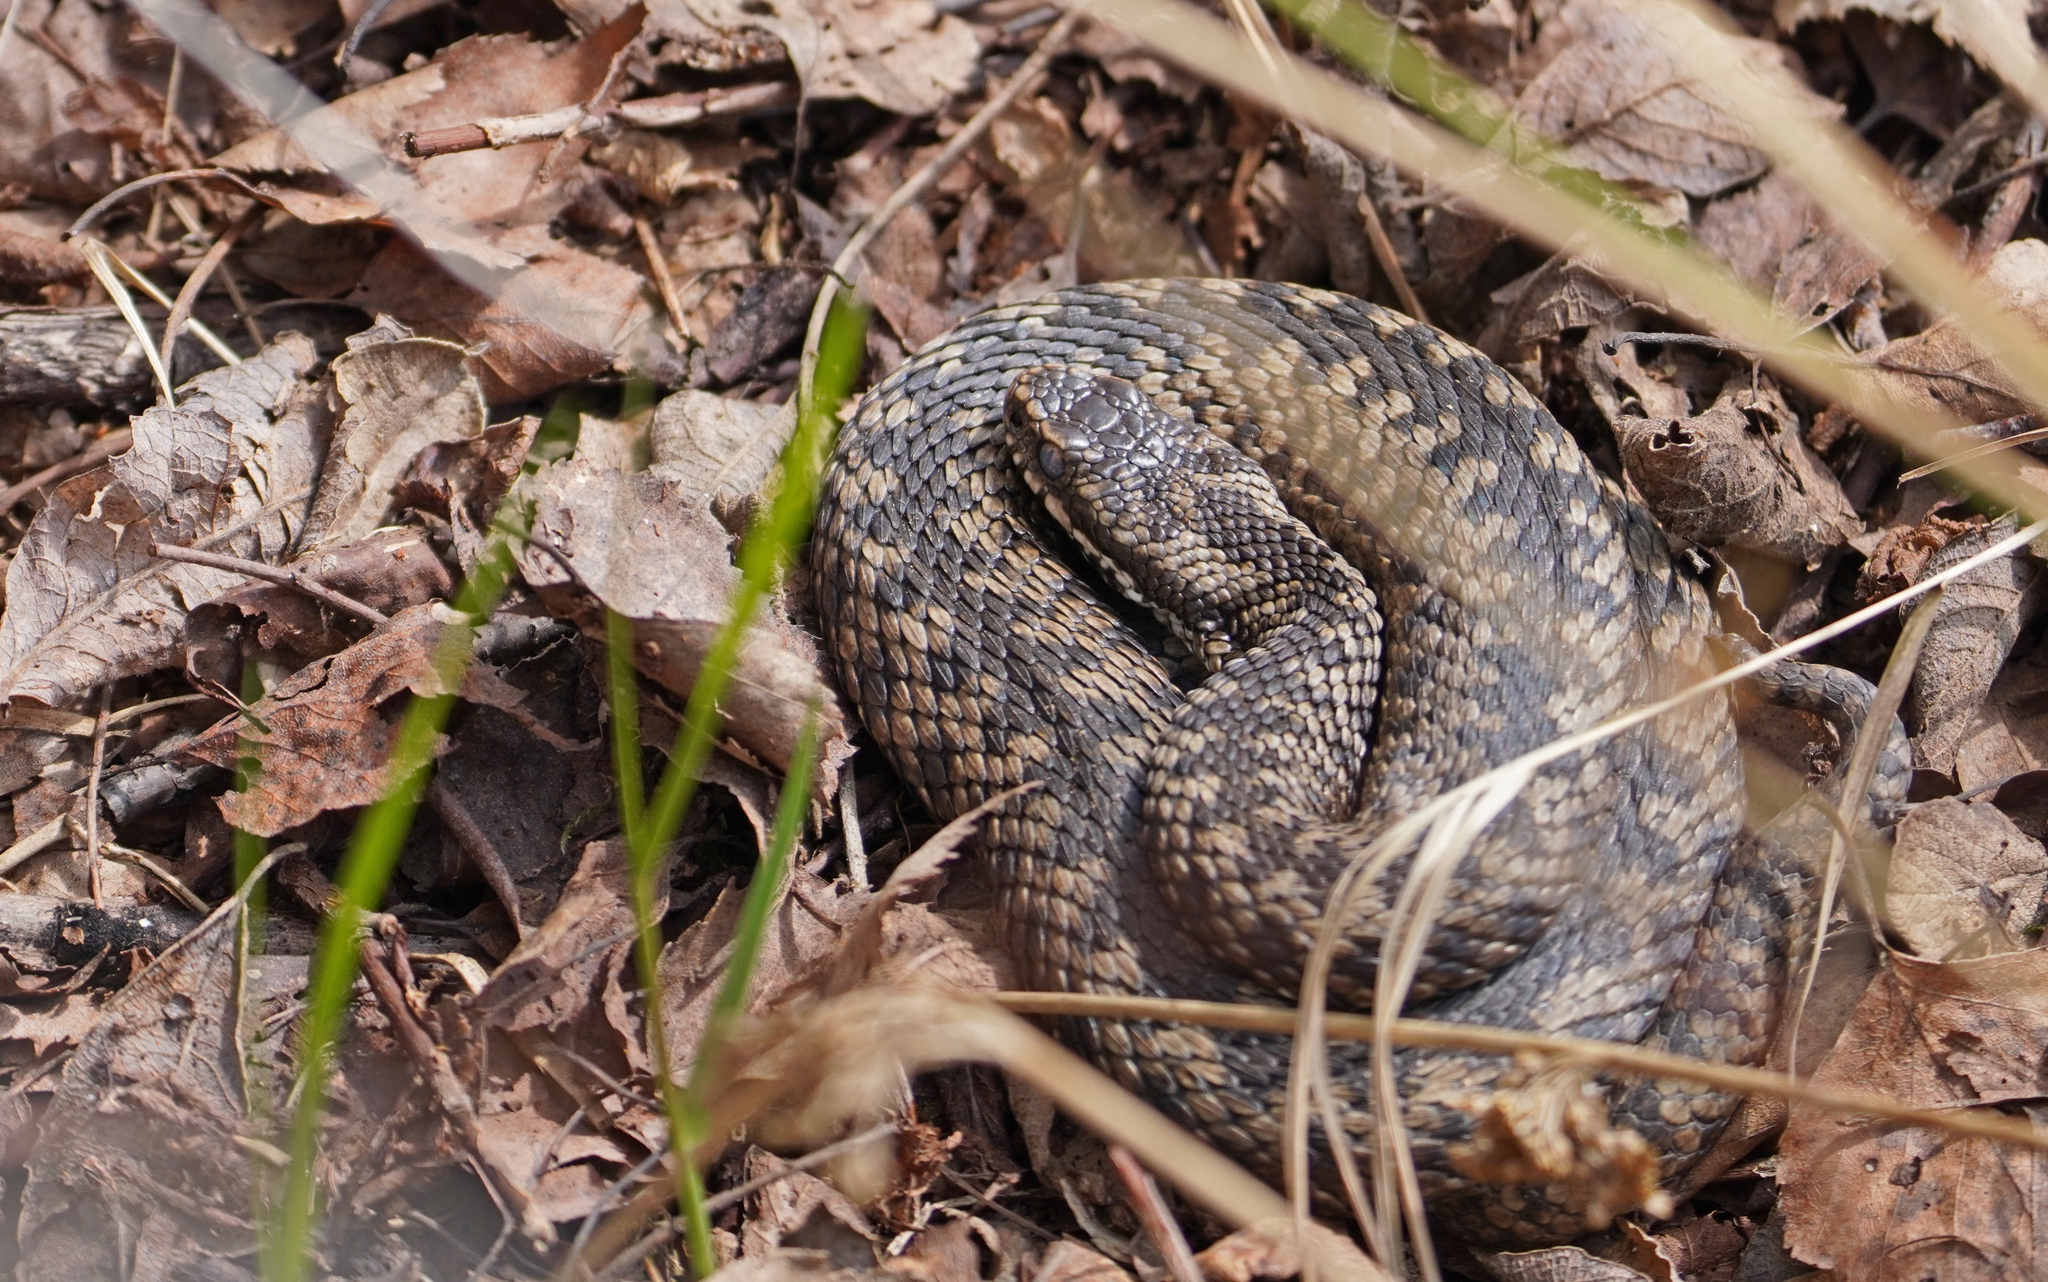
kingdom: Animalia
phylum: Chordata
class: Squamata
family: Viperidae
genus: Vipera
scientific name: Vipera berus
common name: Adder
